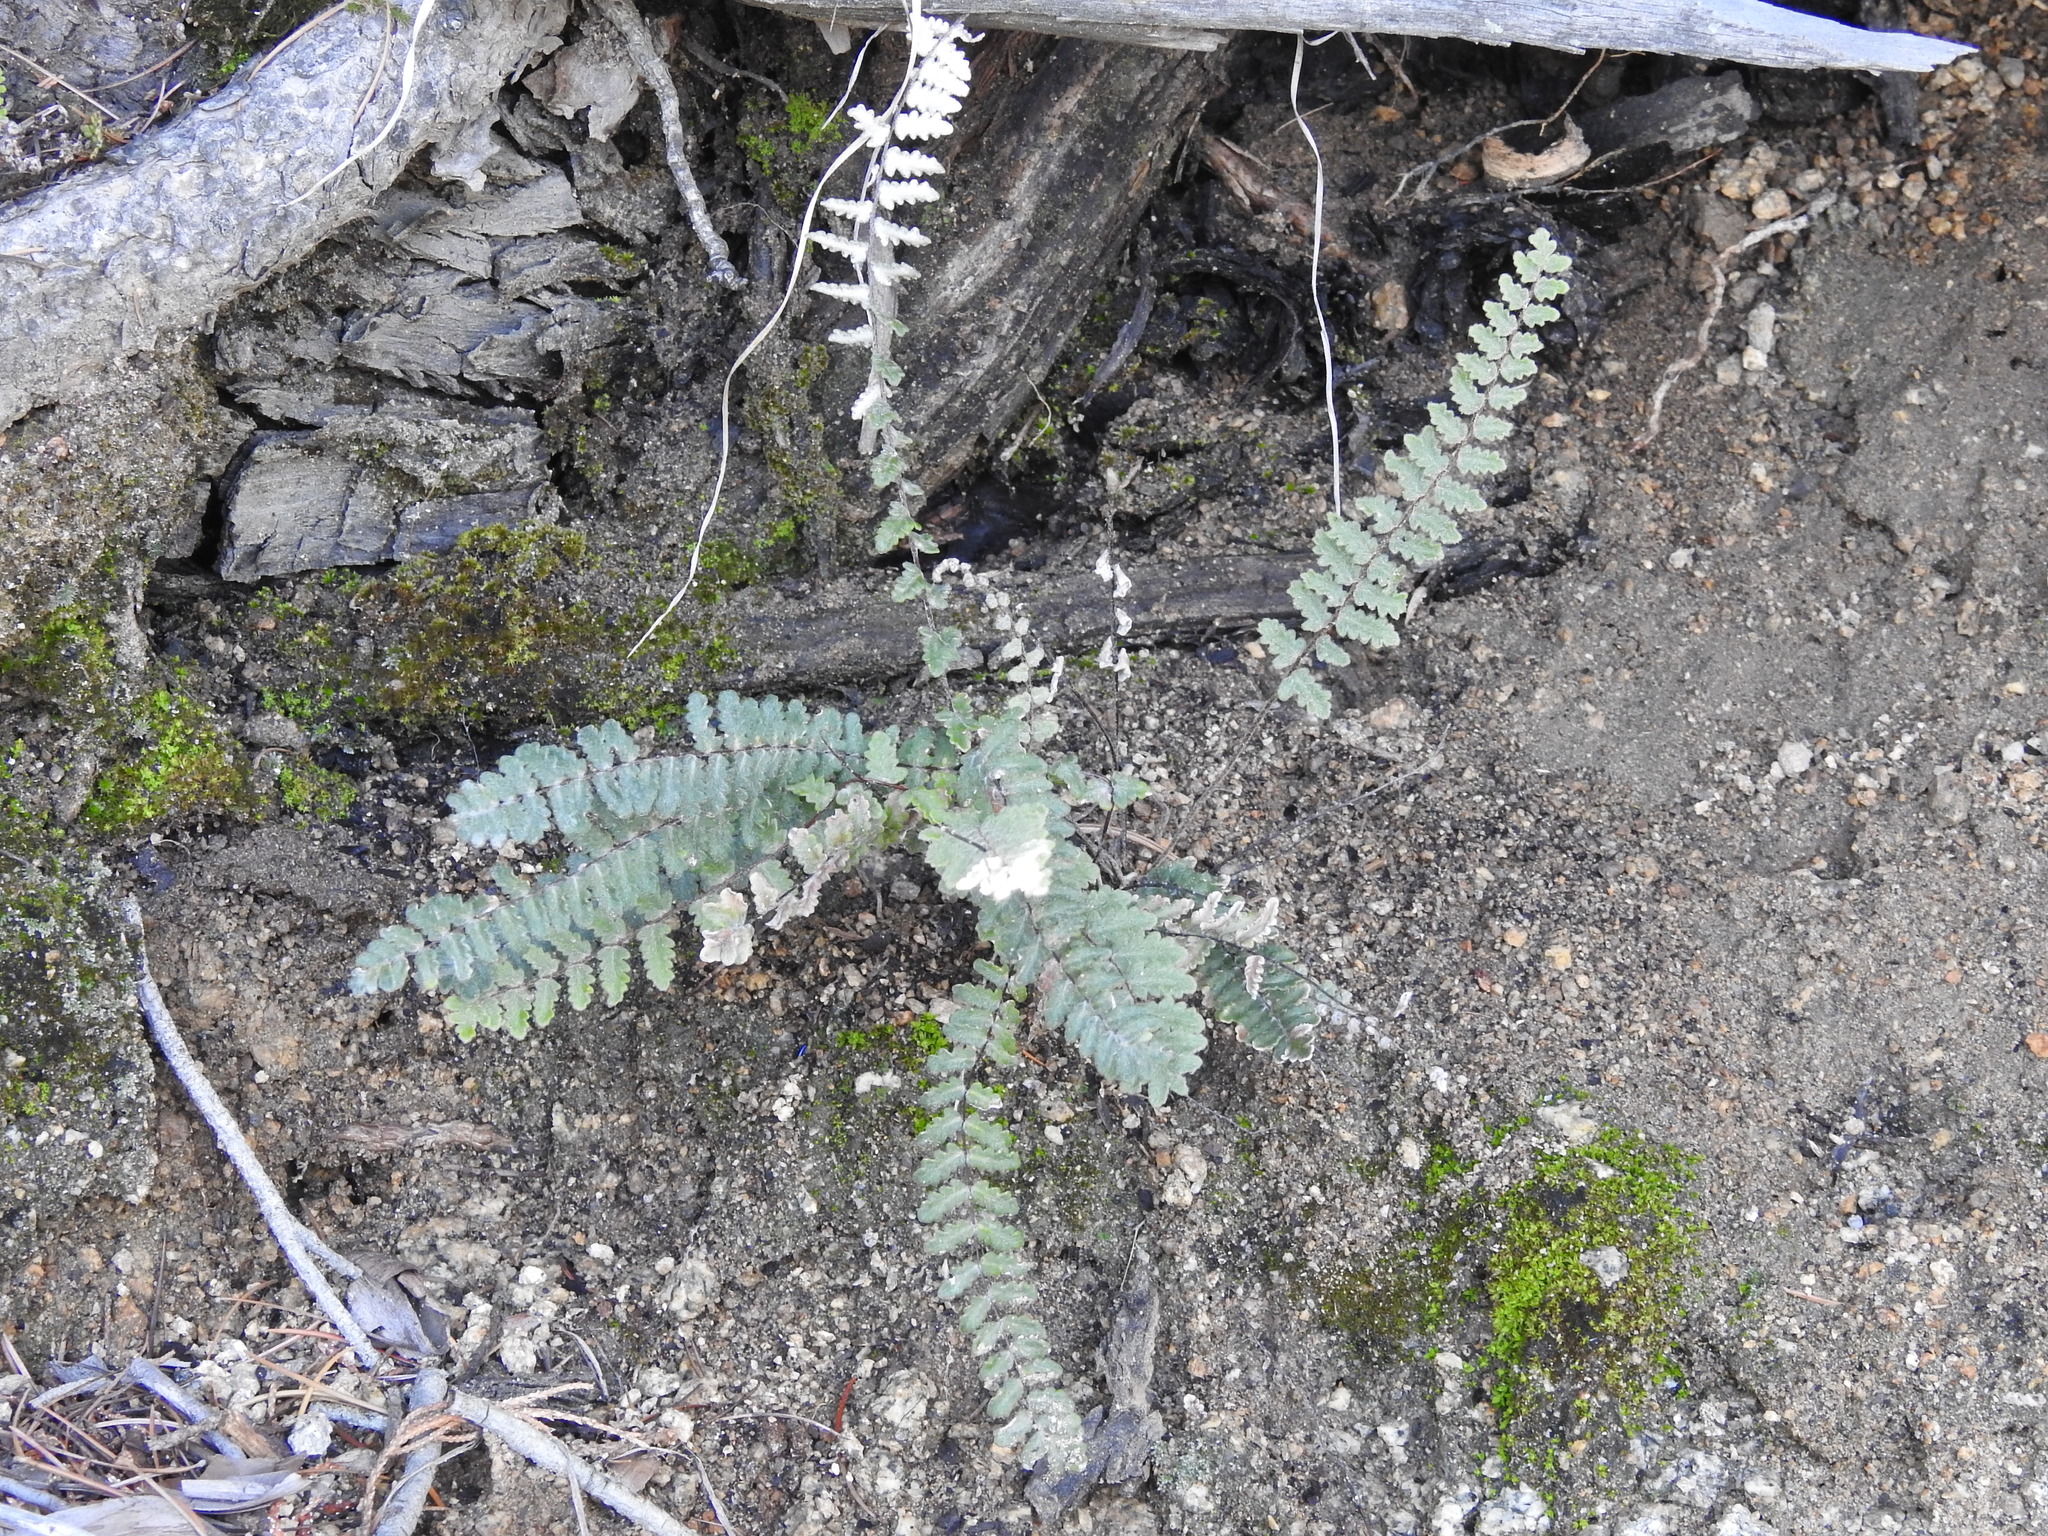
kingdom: Plantae
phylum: Tracheophyta
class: Polypodiopsida
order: Polypodiales
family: Pteridaceae
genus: Myriopteris
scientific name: Myriopteris aurea
